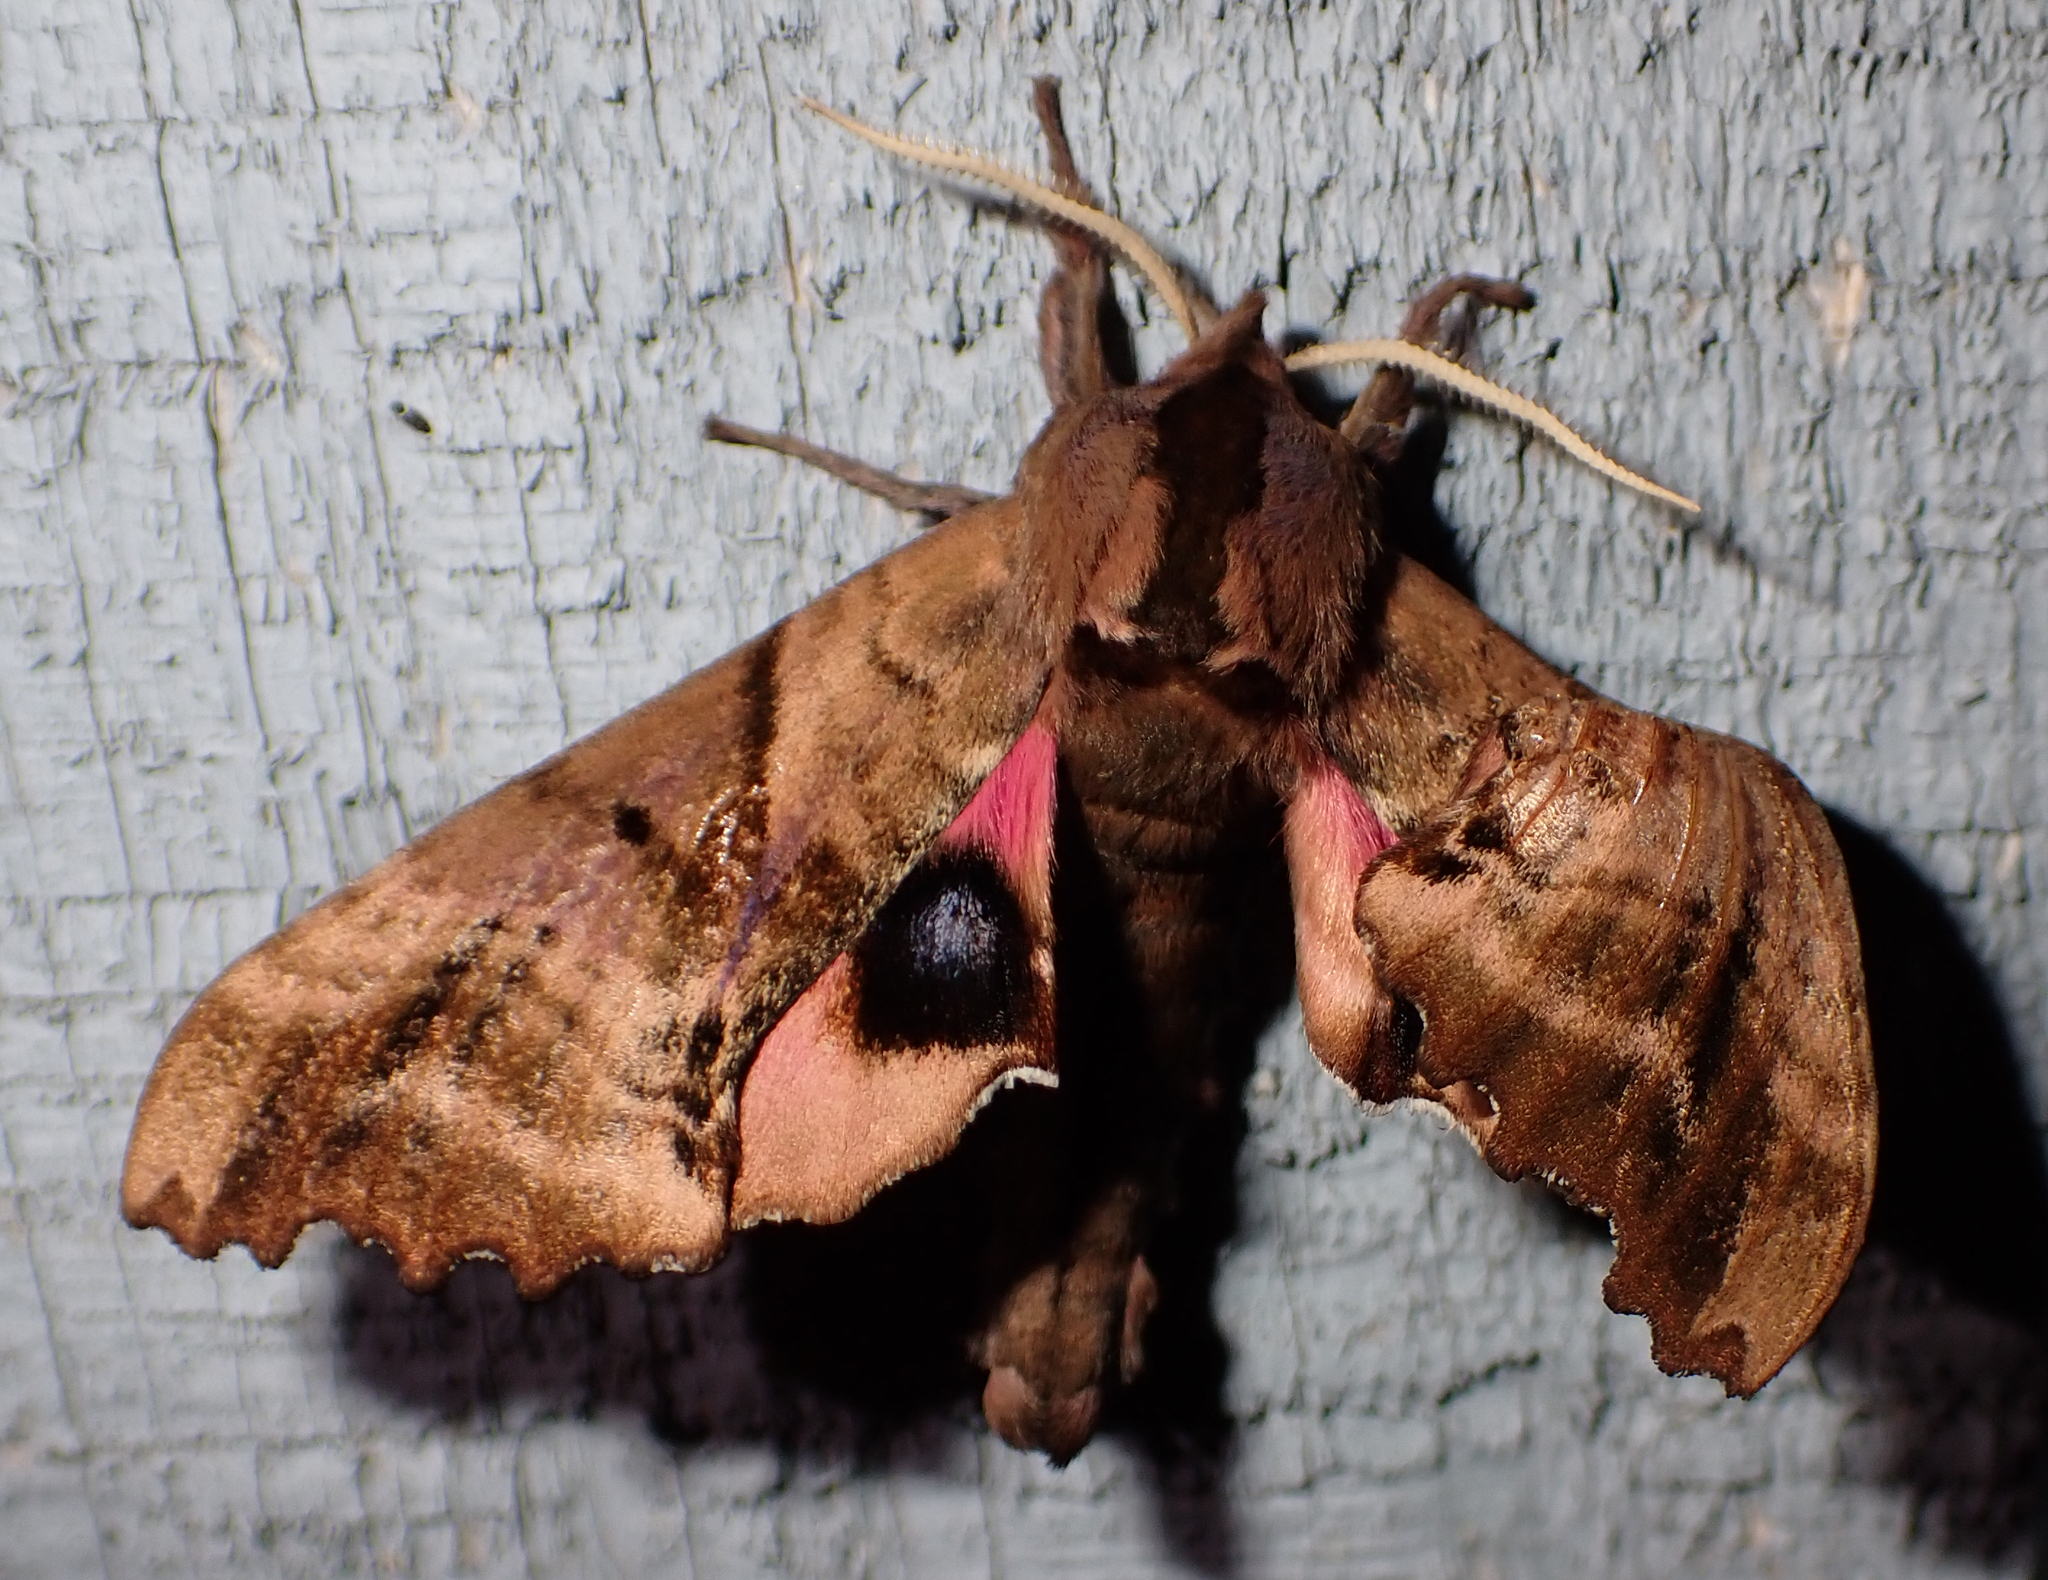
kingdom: Animalia
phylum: Arthropoda
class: Insecta
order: Lepidoptera
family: Sphingidae
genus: Paonias
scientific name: Paonias excaecata
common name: Blind-eyed sphinx
